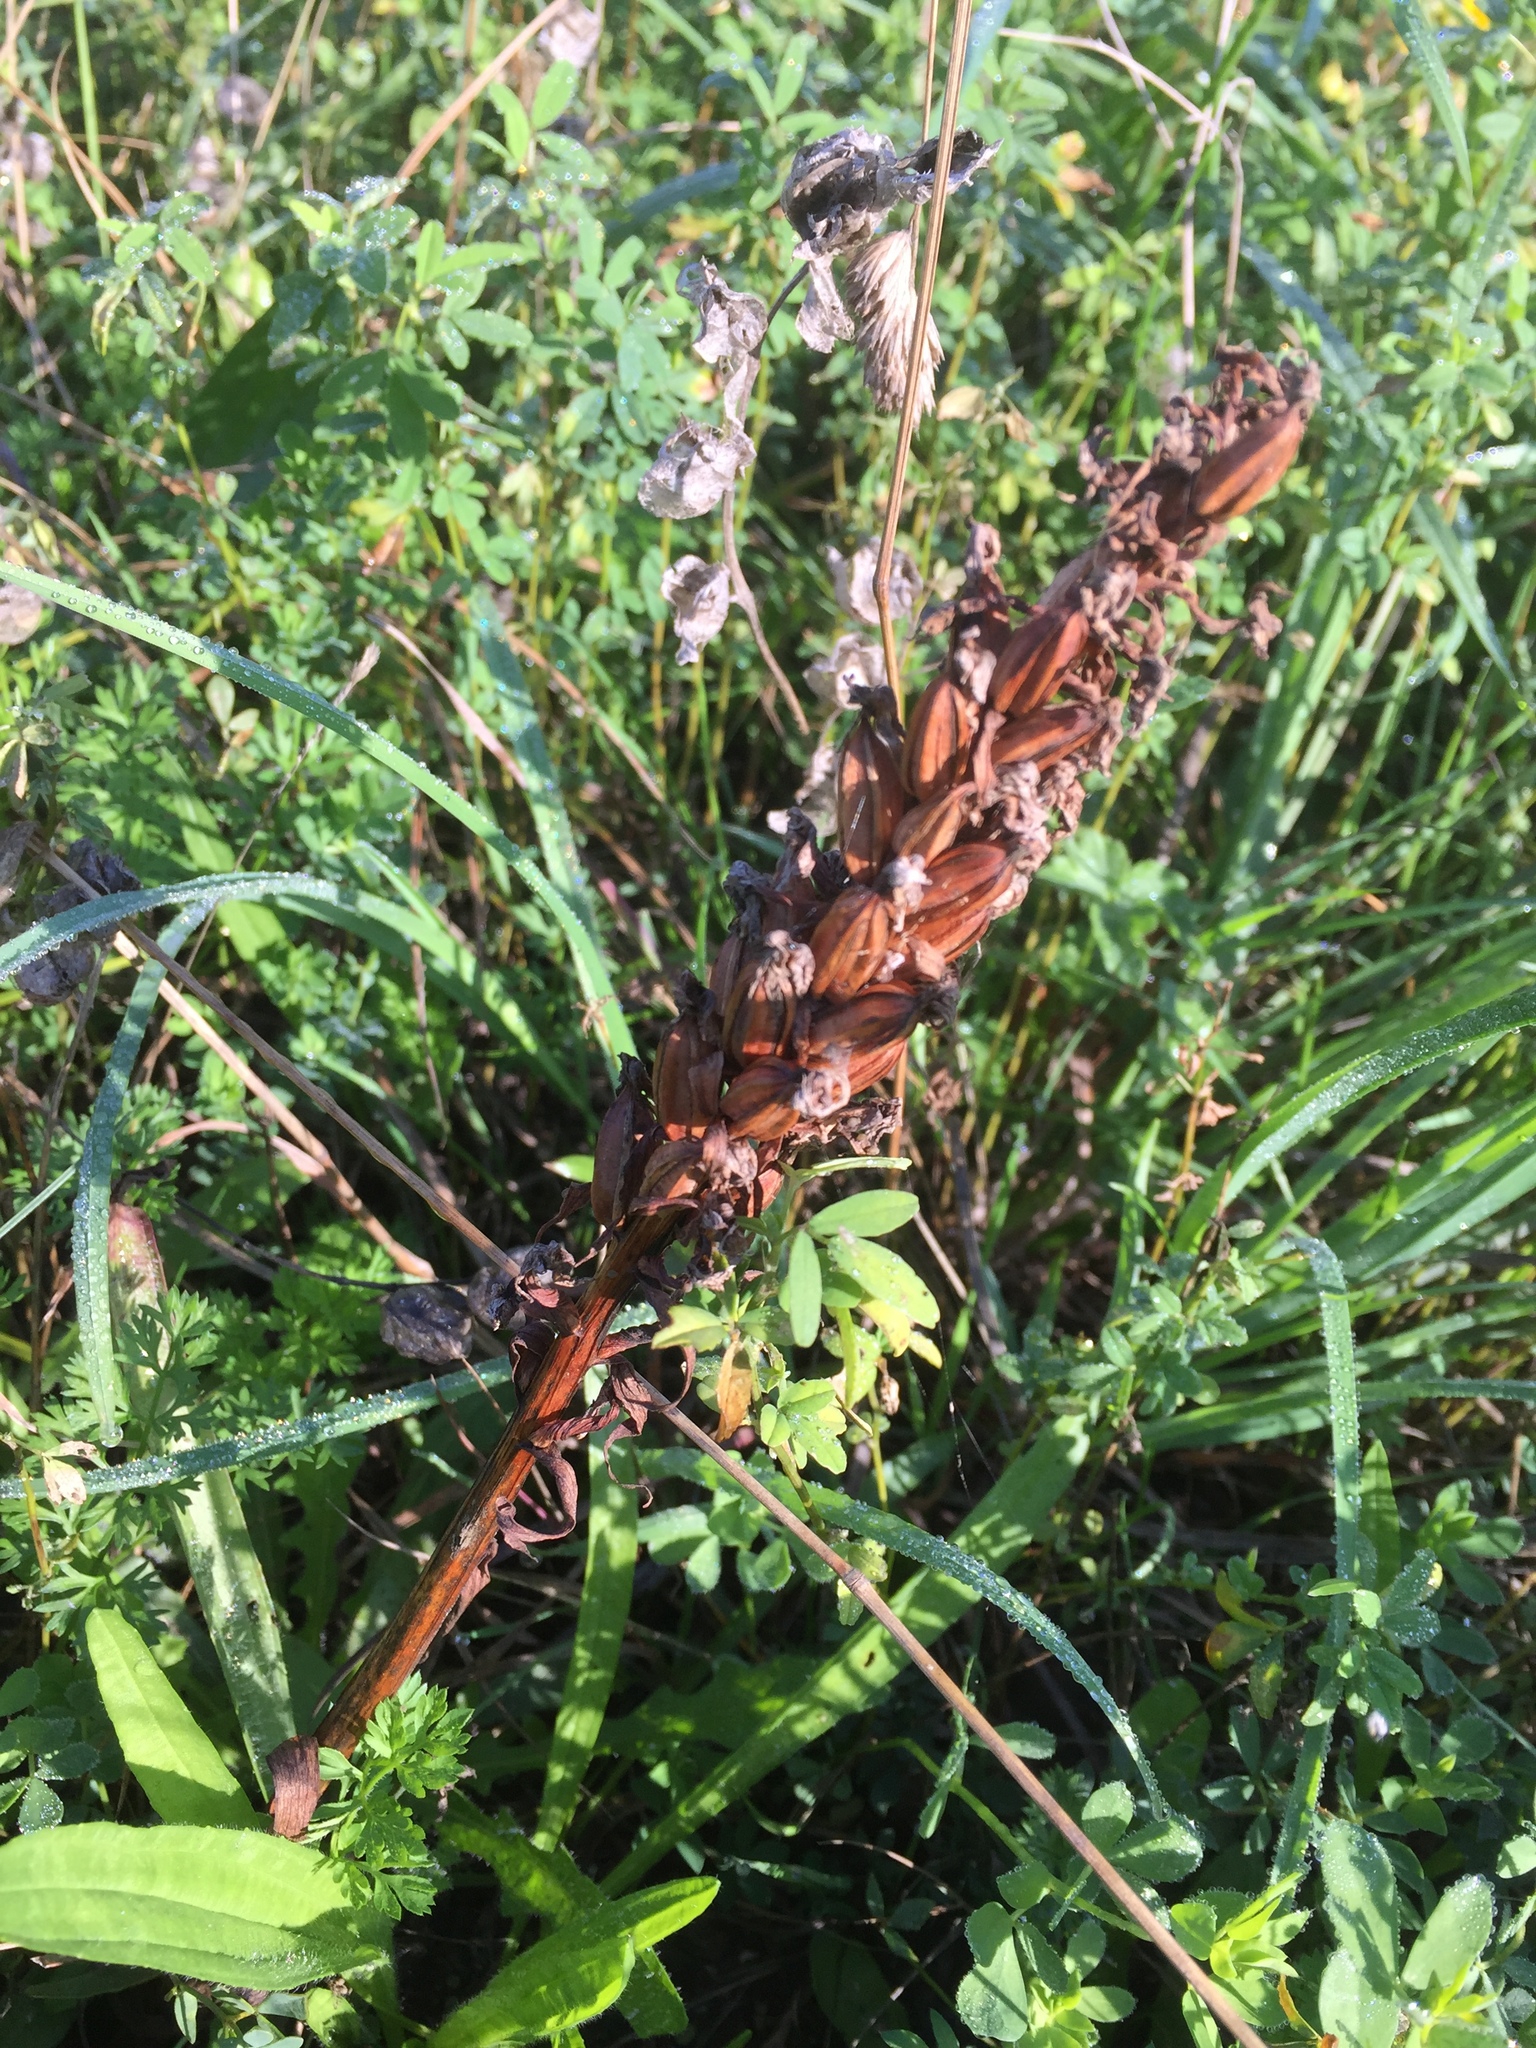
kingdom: Plantae
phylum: Tracheophyta
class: Liliopsida
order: Asparagales
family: Orchidaceae
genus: Dactylorhiza
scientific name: Dactylorhiza majalis
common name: Marsh orchid
